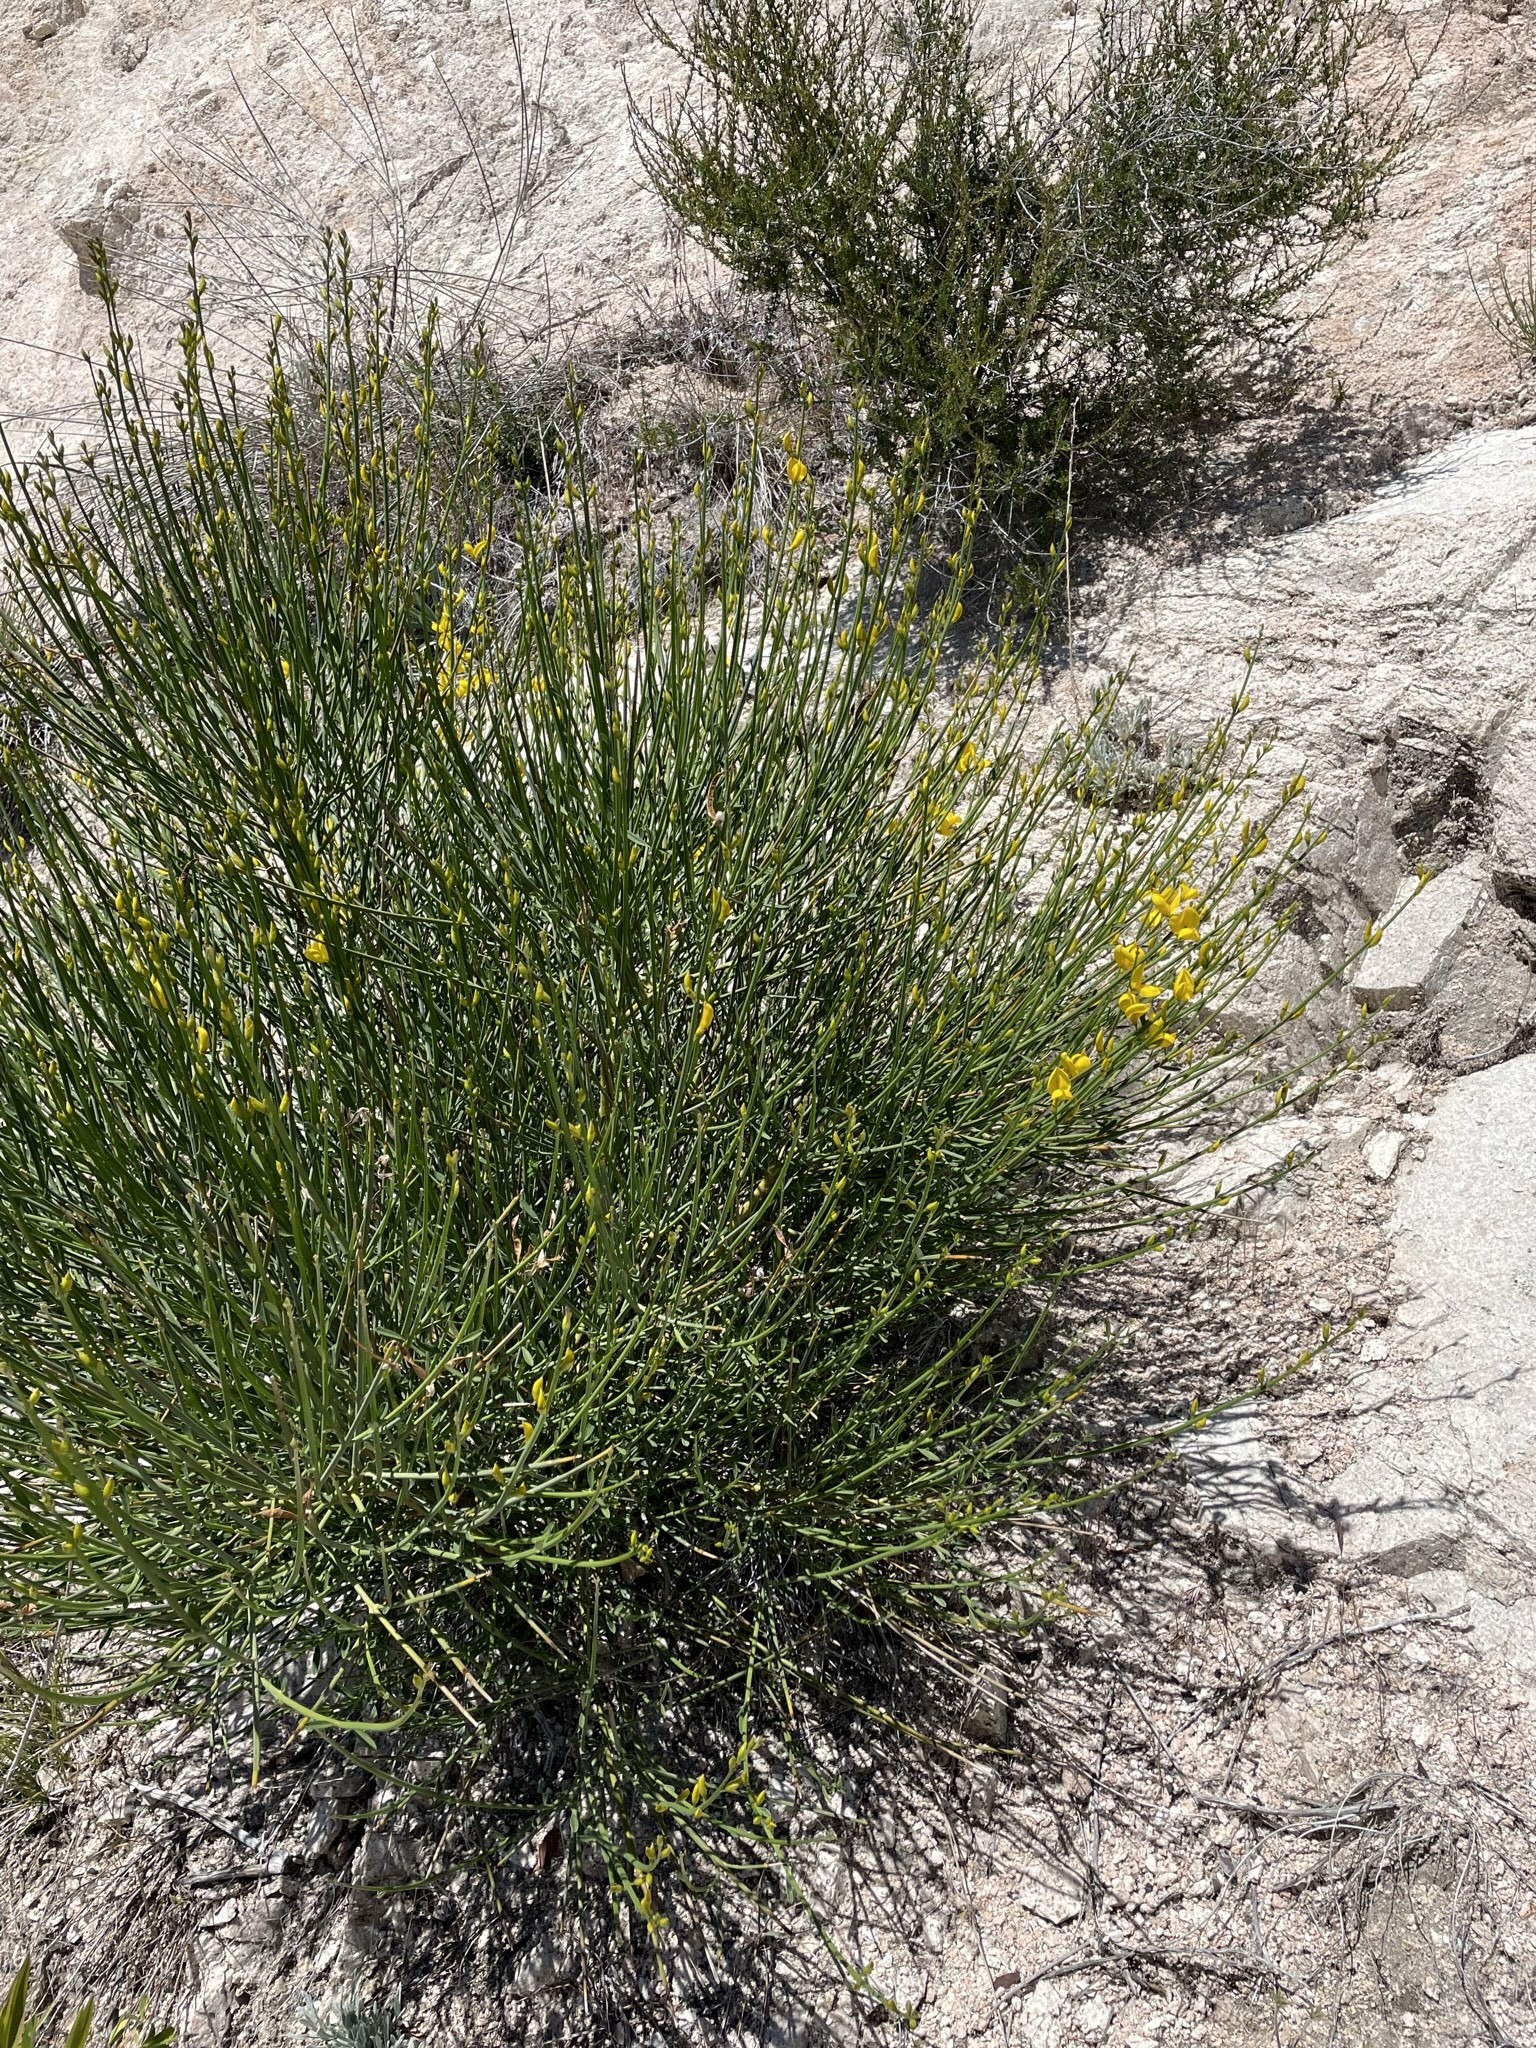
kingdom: Plantae
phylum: Tracheophyta
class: Magnoliopsida
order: Fabales
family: Fabaceae
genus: Spartium
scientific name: Spartium junceum
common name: Spanish broom
